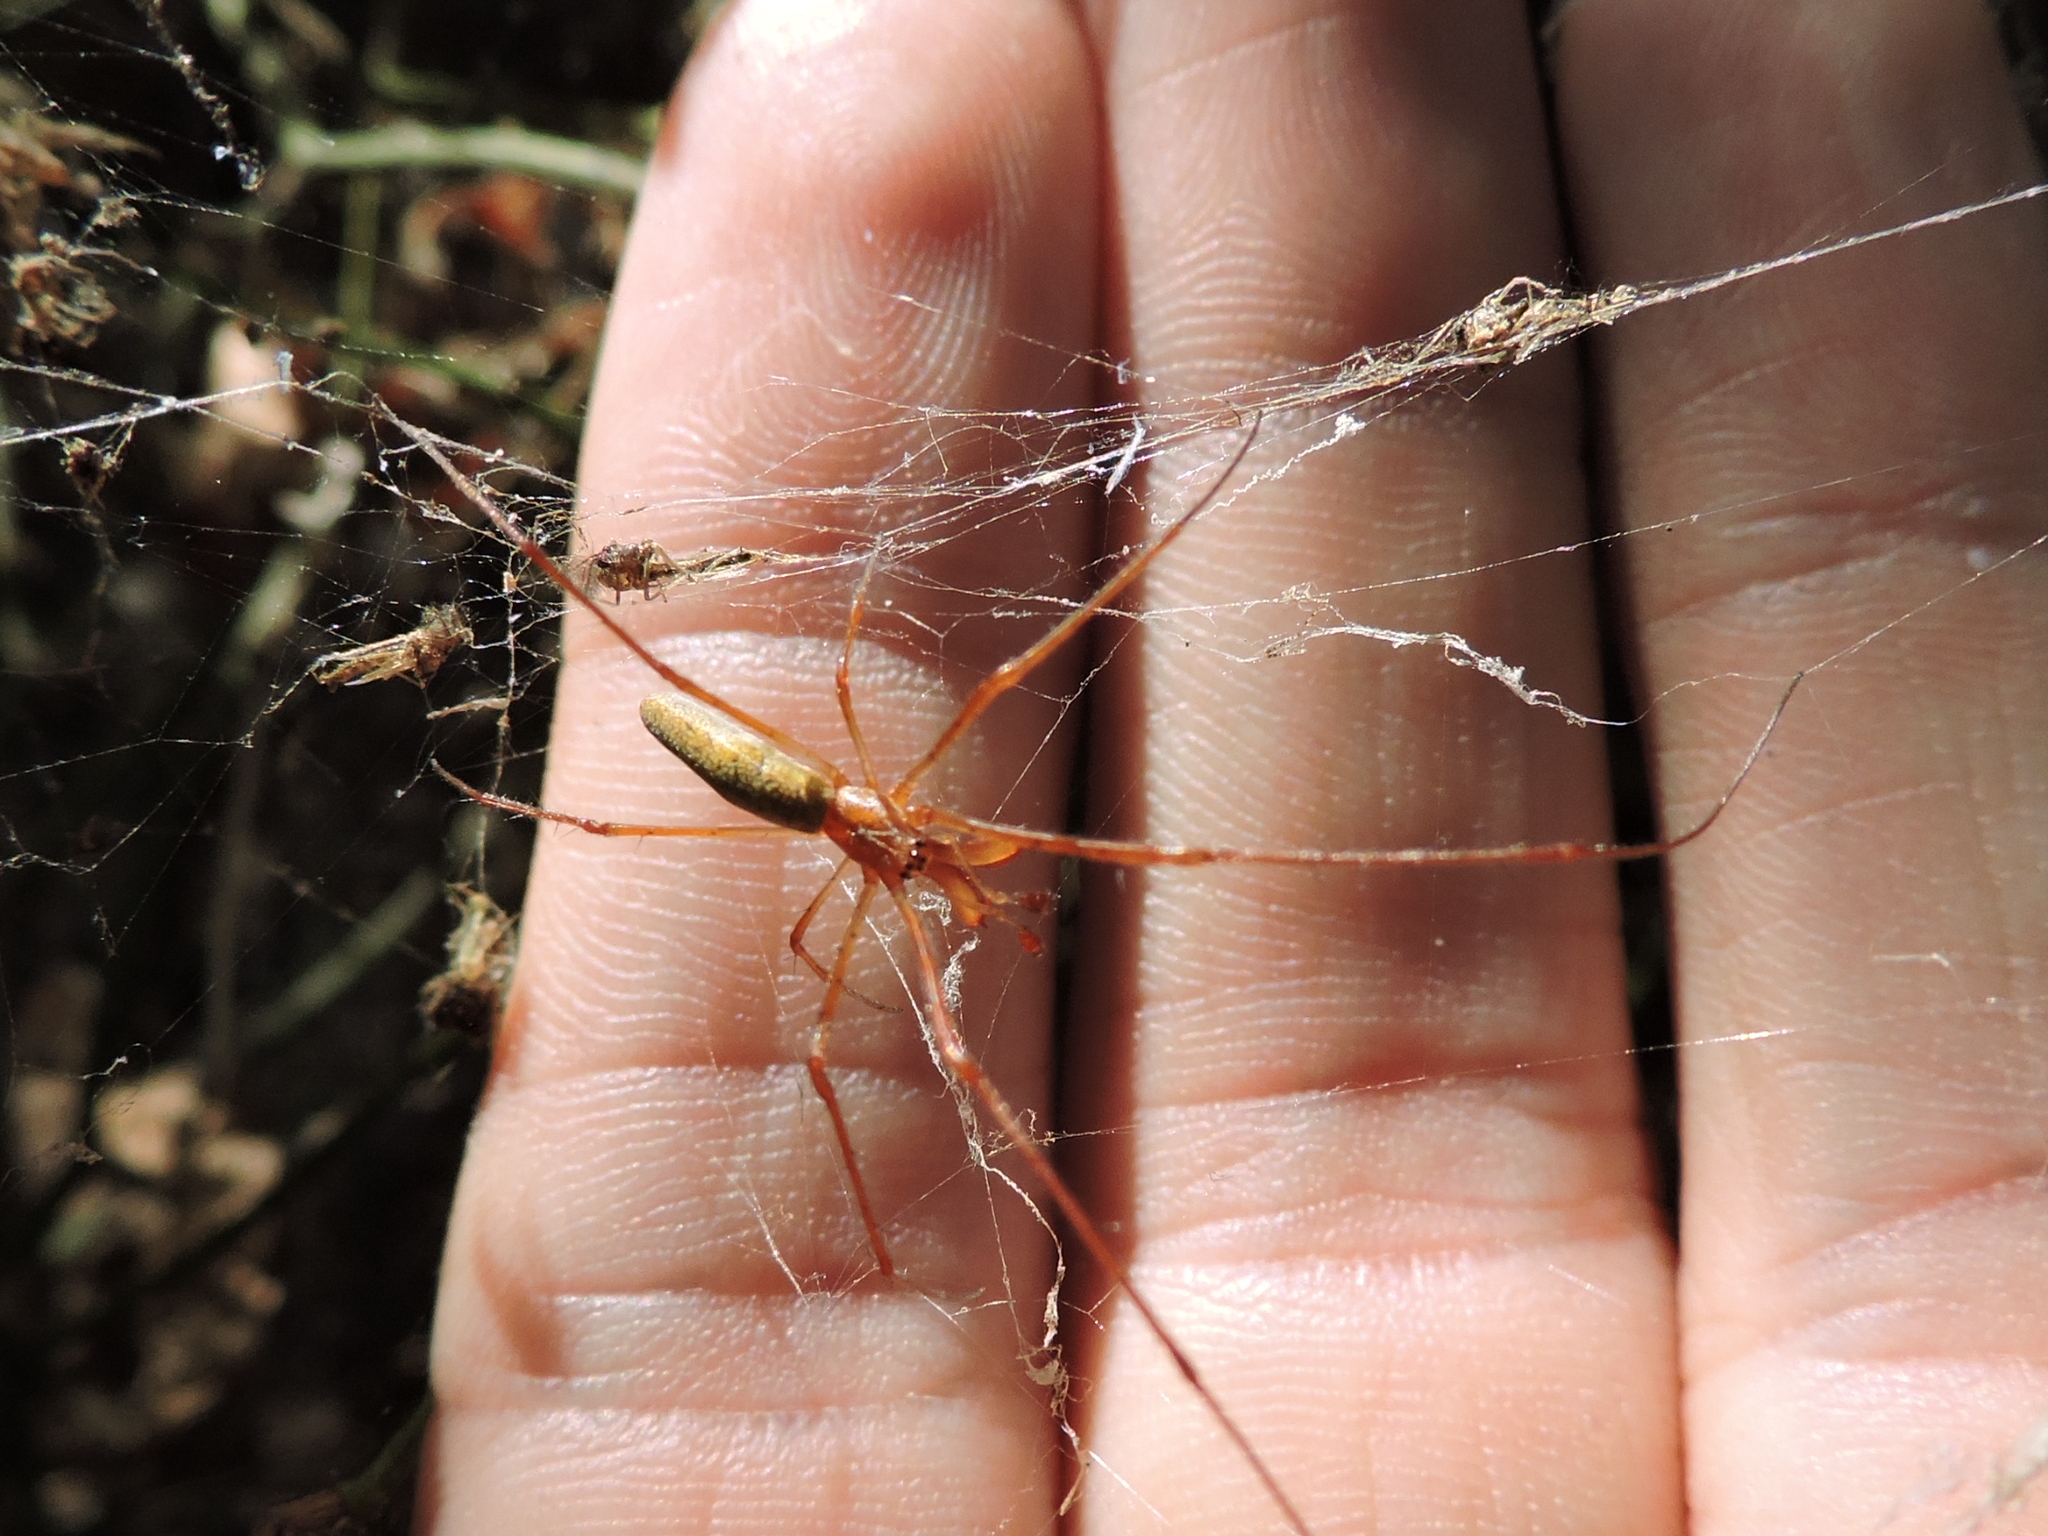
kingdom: Animalia
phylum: Arthropoda
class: Arachnida
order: Araneae
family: Tetragnathidae
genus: Tetragnatha
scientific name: Tetragnatha laboriosa
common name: Longjawed orb weavers
